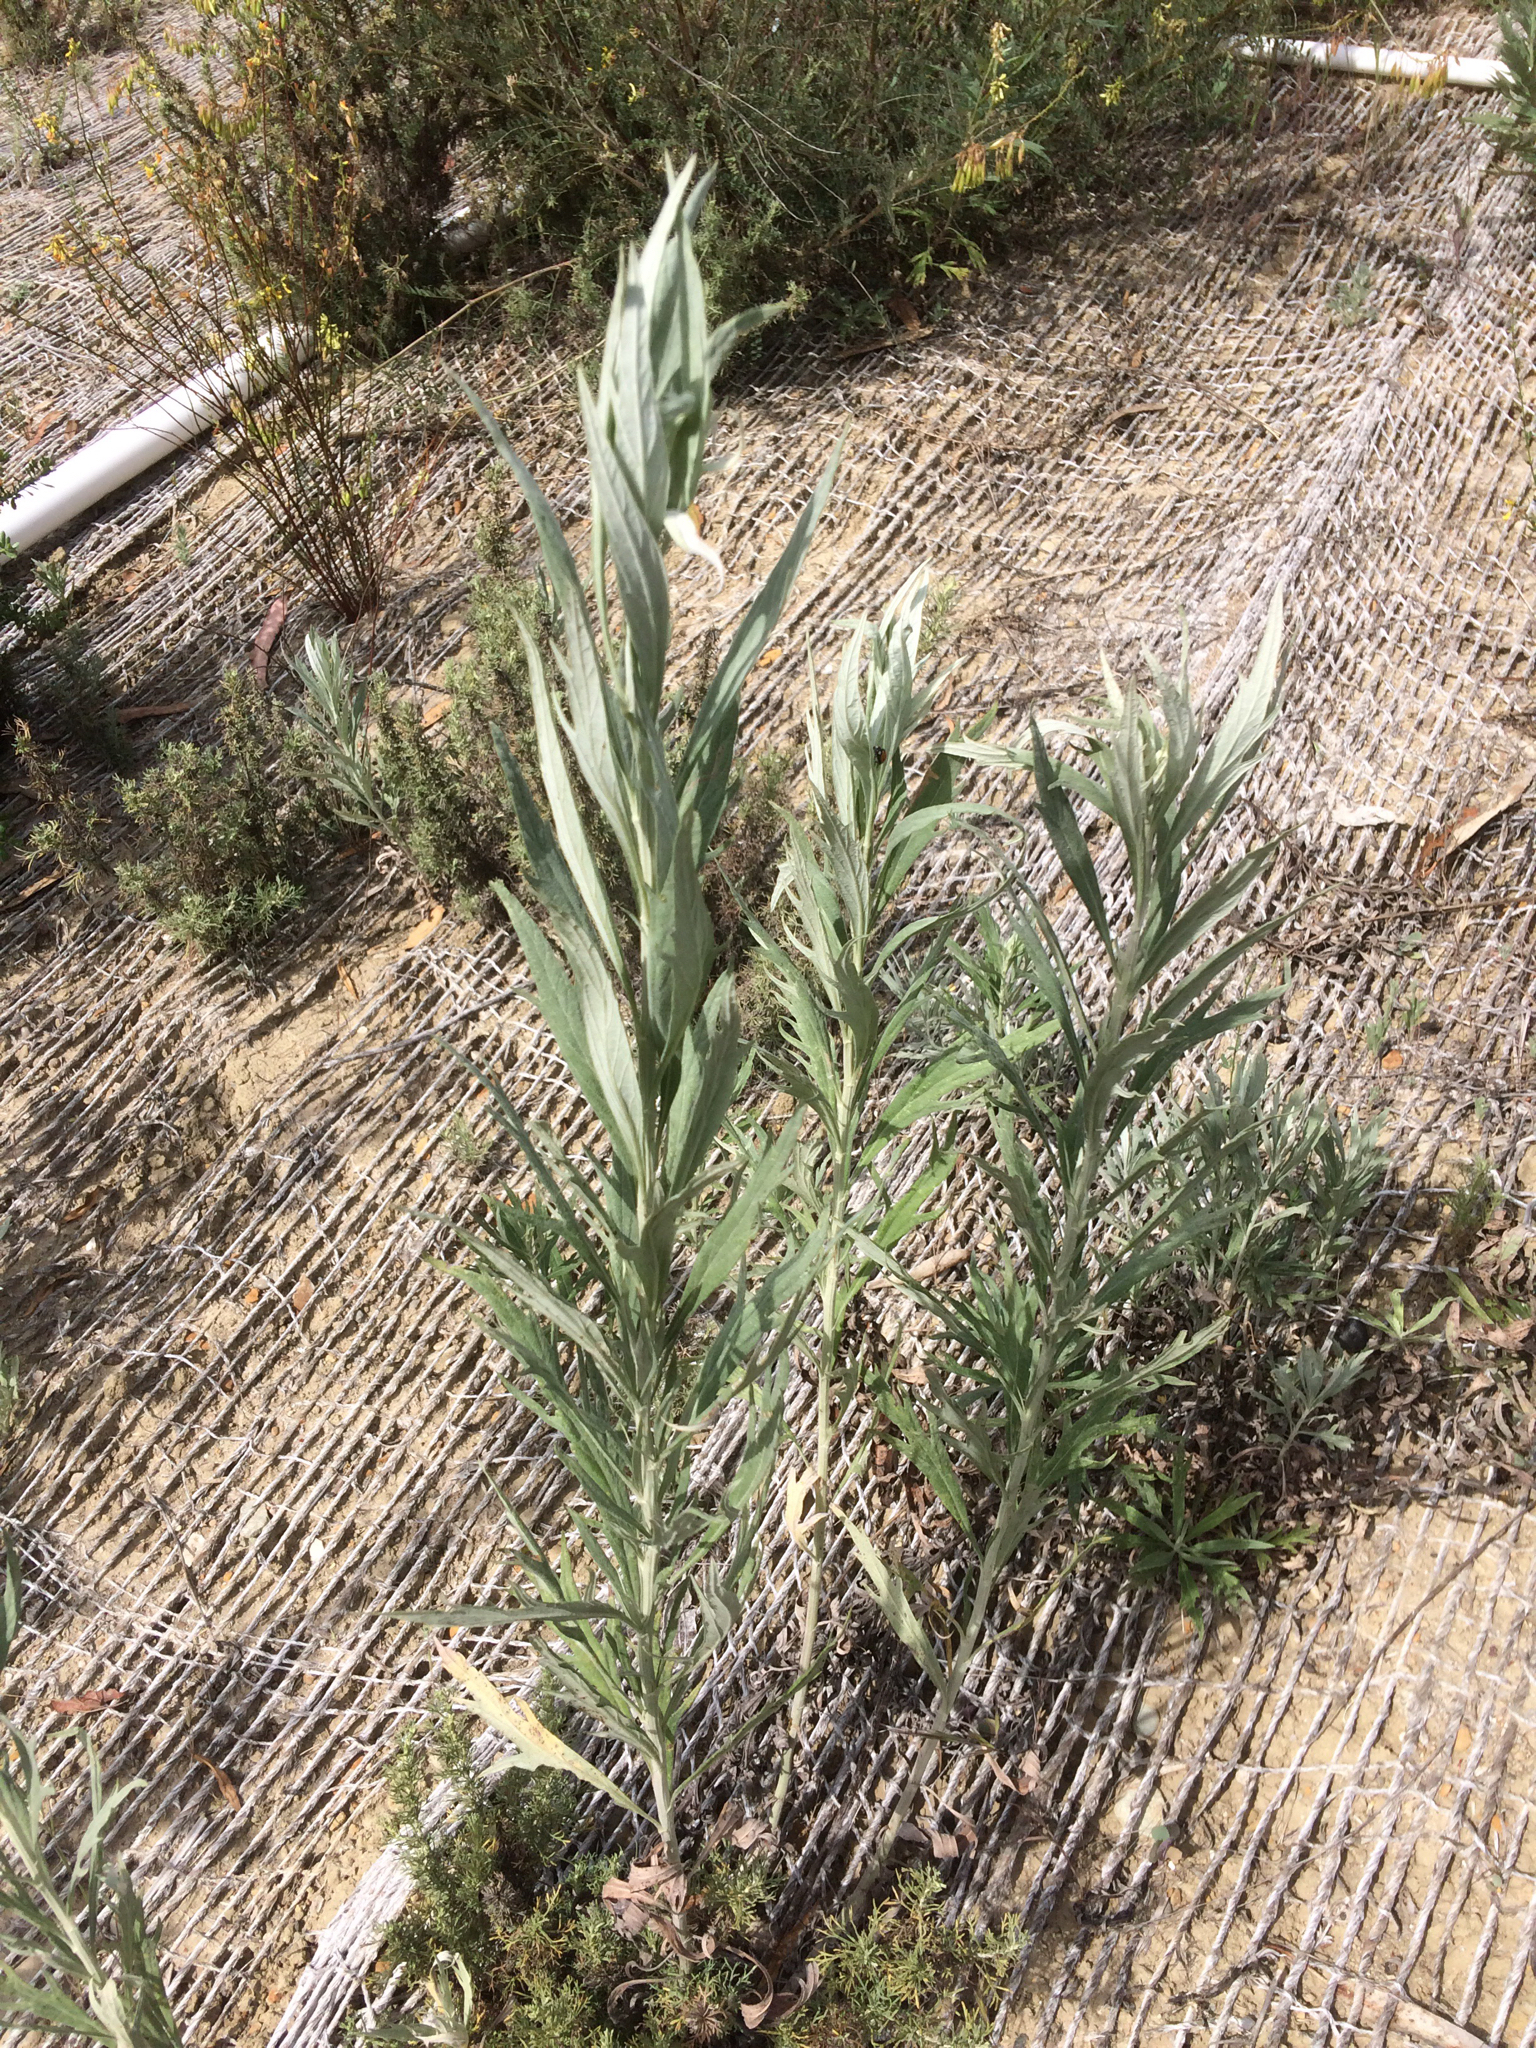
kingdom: Plantae
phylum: Tracheophyta
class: Magnoliopsida
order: Asterales
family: Asteraceae
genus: Artemisia
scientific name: Artemisia douglasiana
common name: Northwest mugwort
